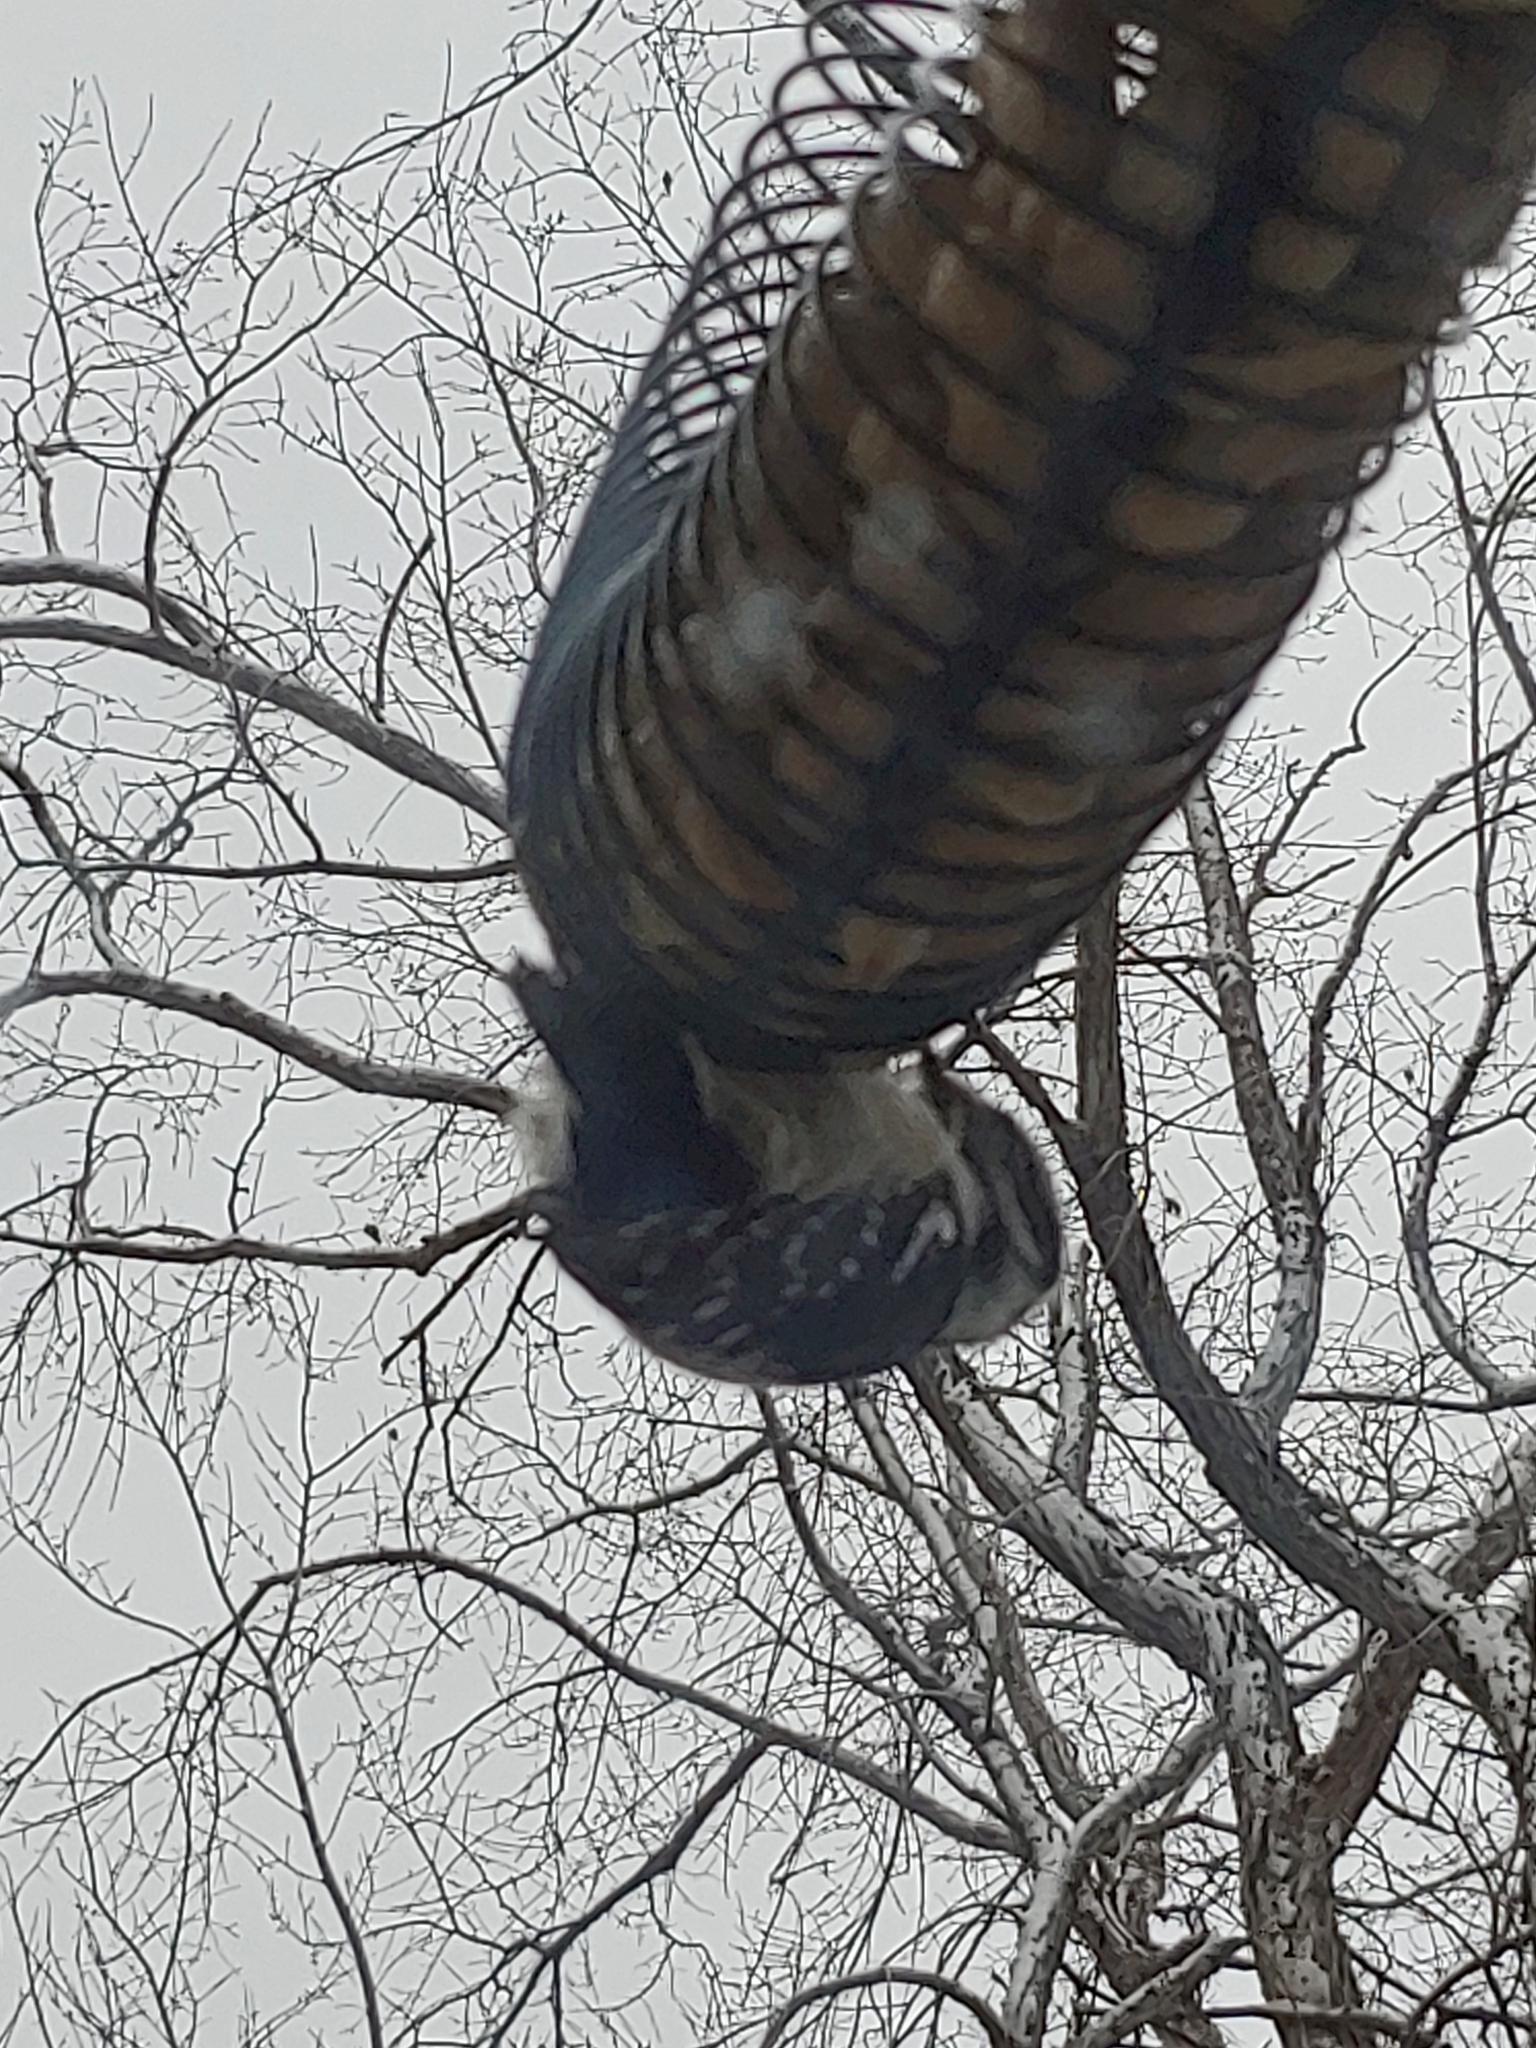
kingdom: Animalia
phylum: Chordata
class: Aves
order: Piciformes
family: Picidae
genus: Dryobates
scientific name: Dryobates pubescens
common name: Downy woodpecker
